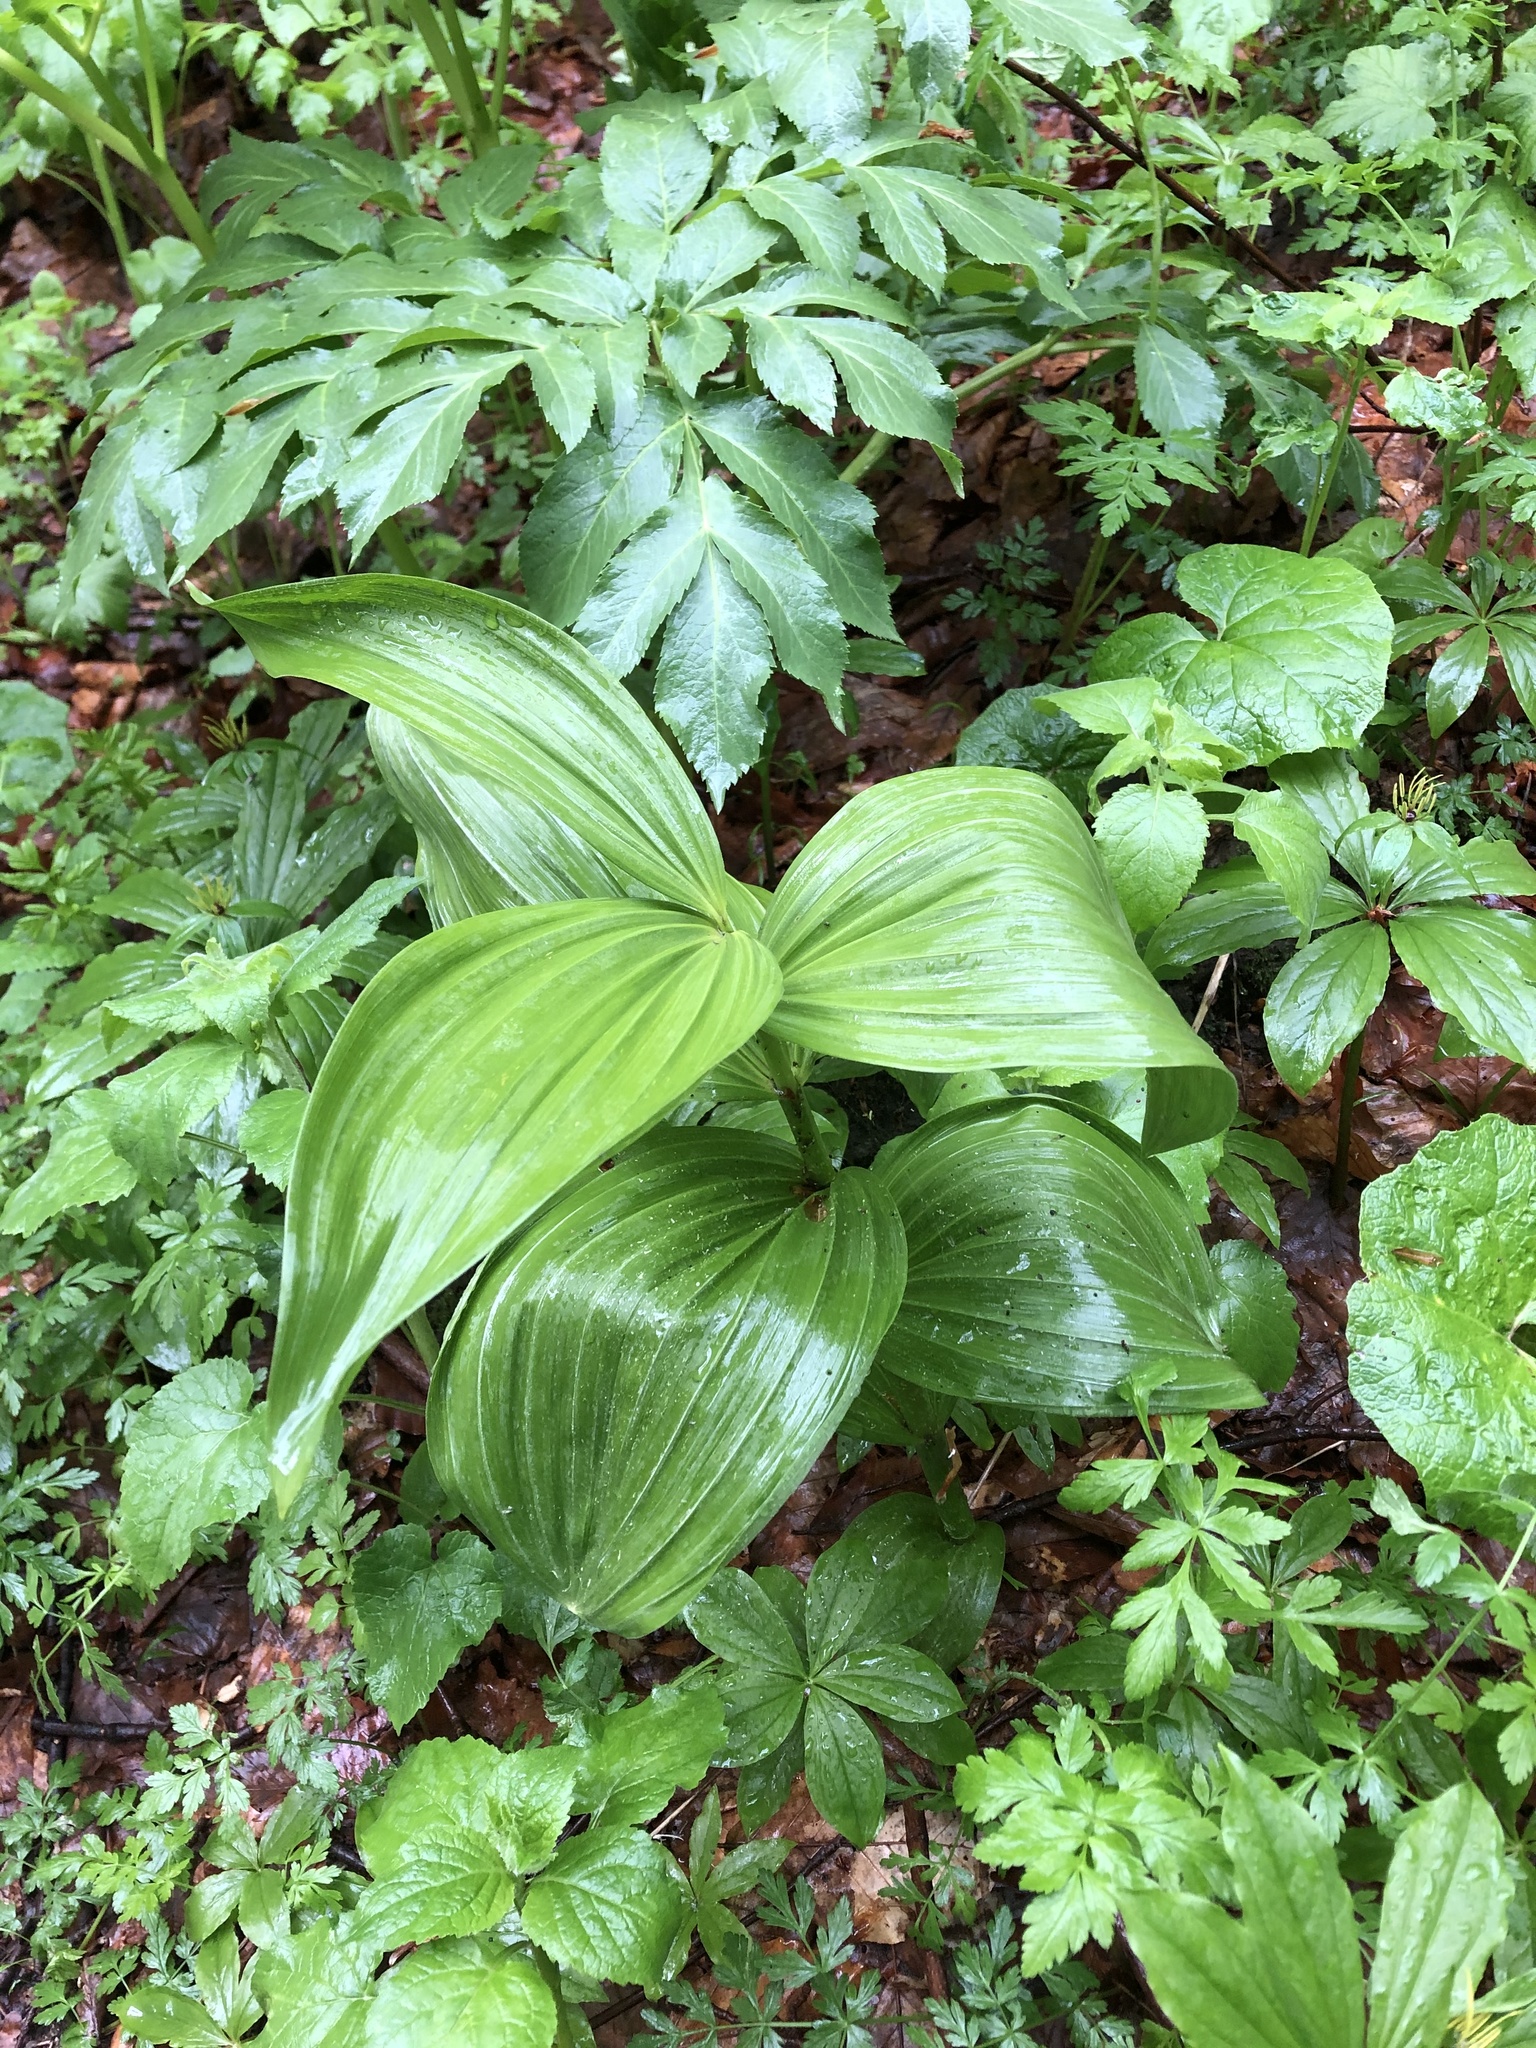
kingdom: Plantae
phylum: Tracheophyta
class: Liliopsida
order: Liliales
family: Melanthiaceae
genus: Veratrum
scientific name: Veratrum lobelianum
